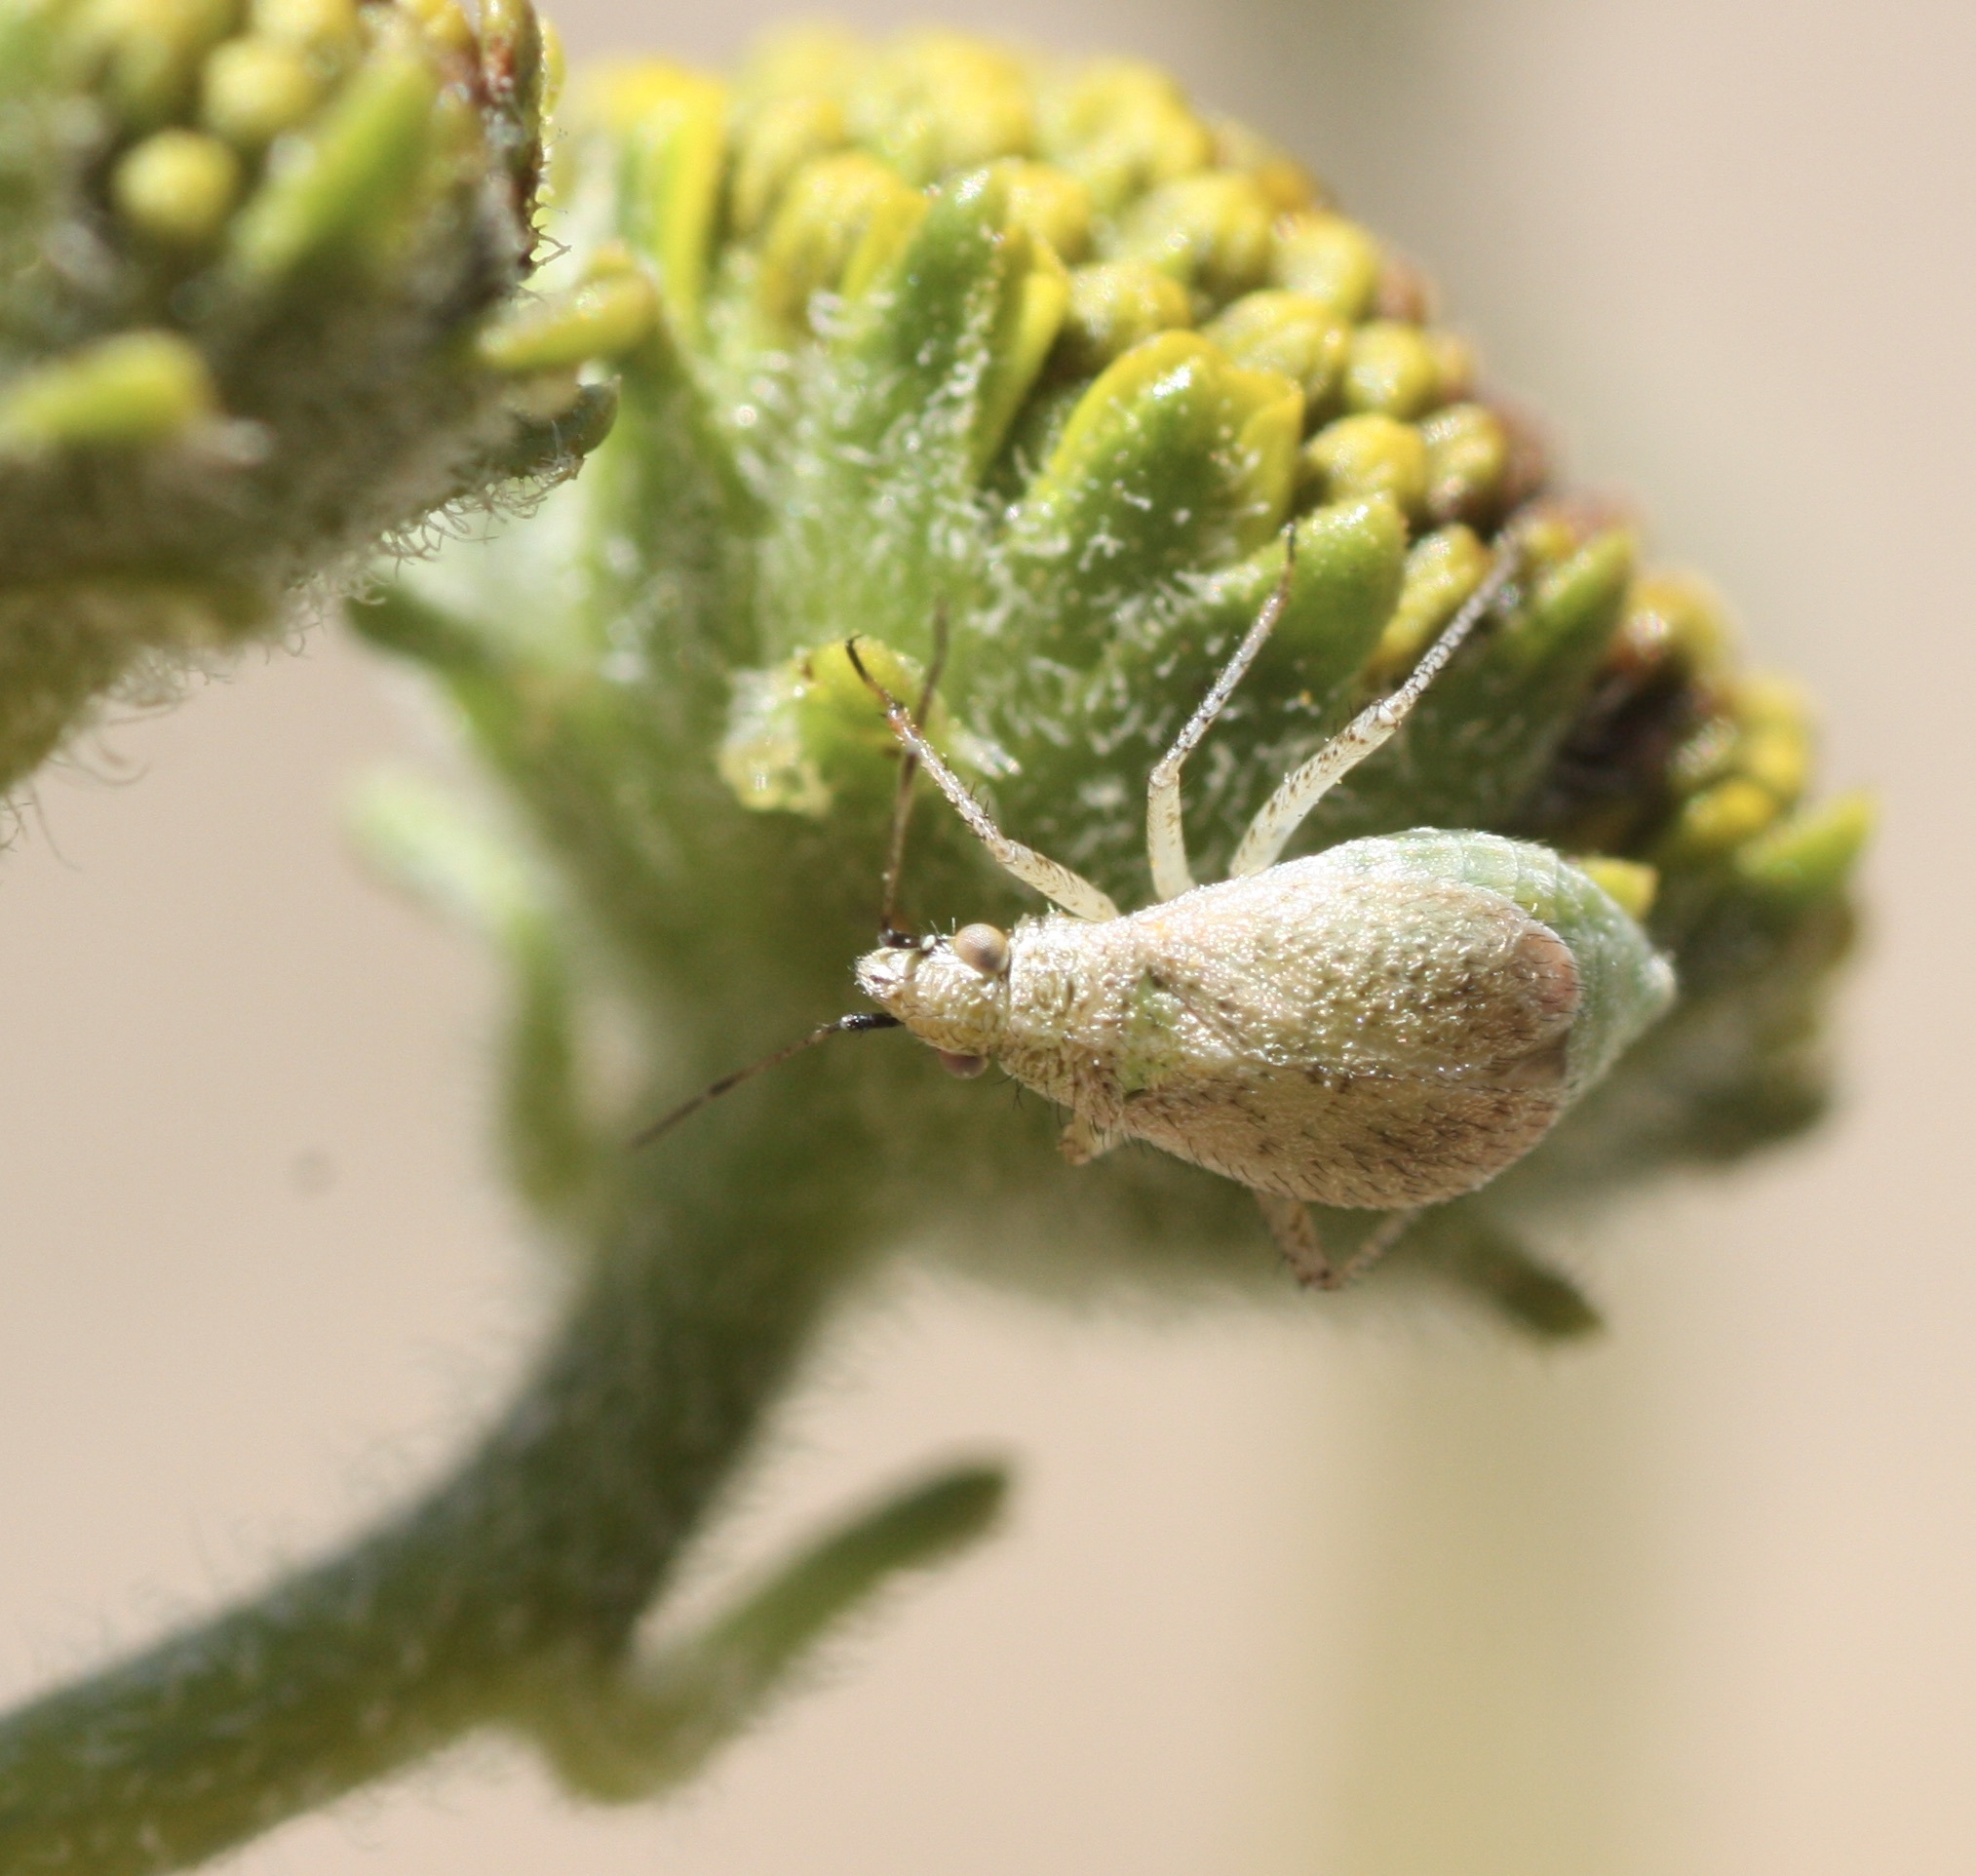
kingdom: Animalia
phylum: Arthropoda
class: Insecta
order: Hemiptera
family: Miridae
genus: Hoplomachidea
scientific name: Hoplomachidea consors
